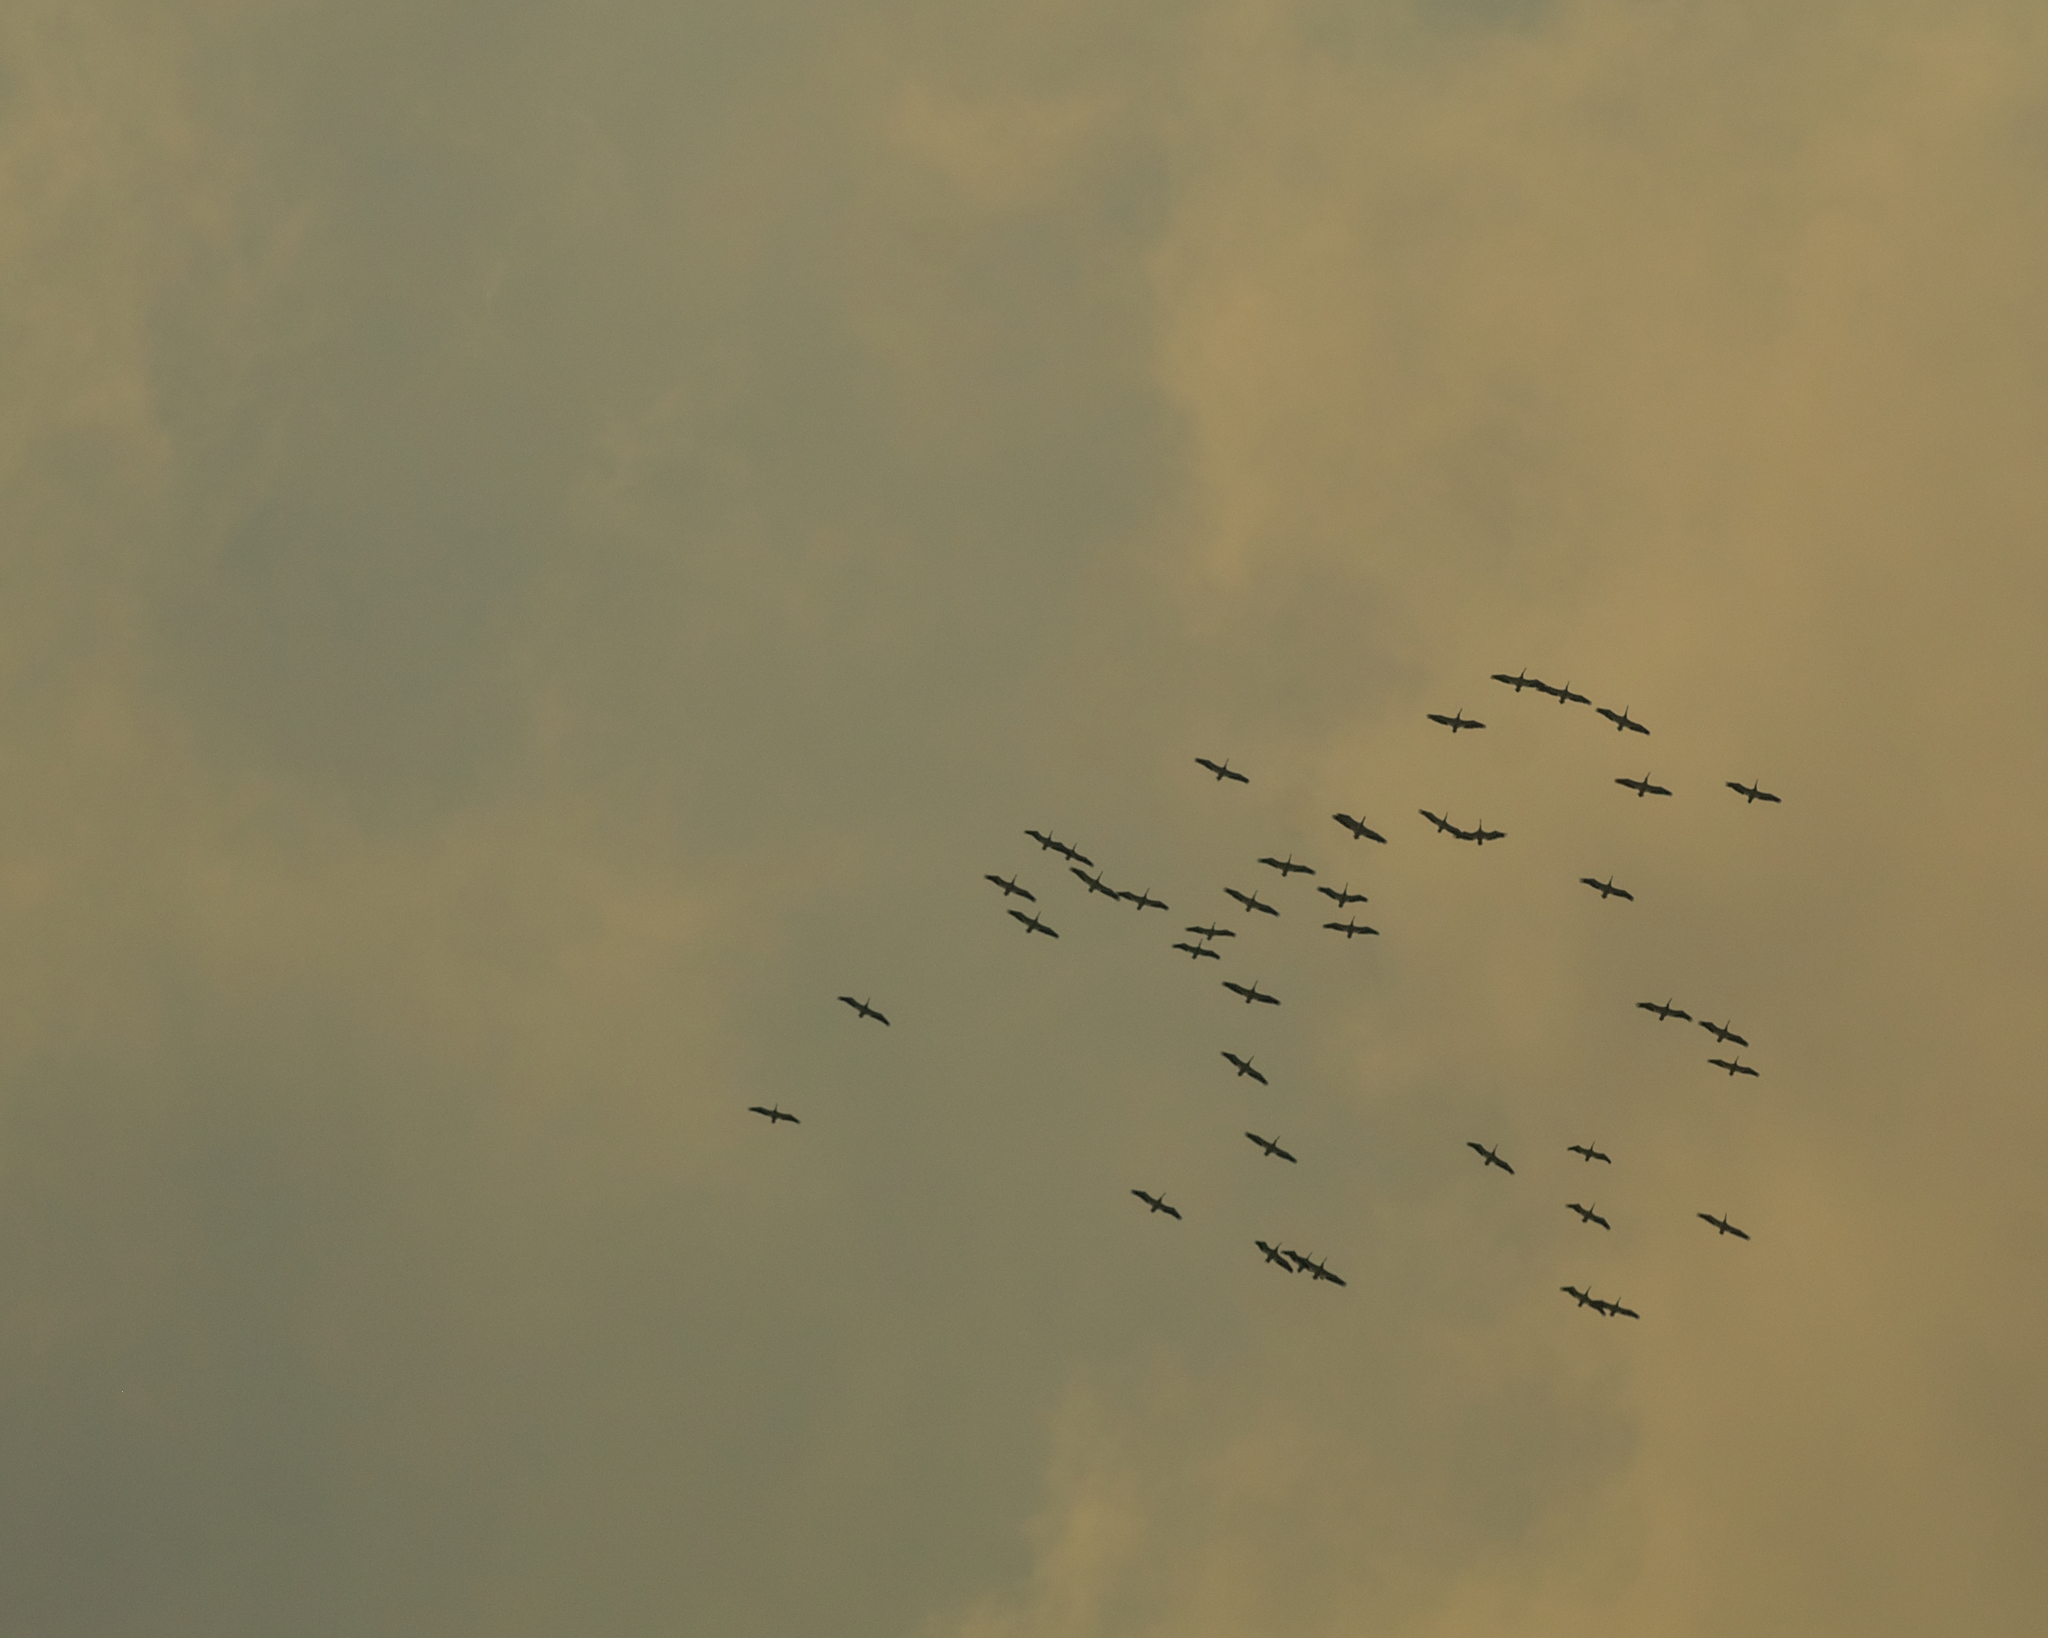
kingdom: Animalia
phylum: Chordata
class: Aves
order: Pelecaniformes
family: Pelecanidae
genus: Pelecanus
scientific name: Pelecanus erythrorhynchos
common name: American white pelican
